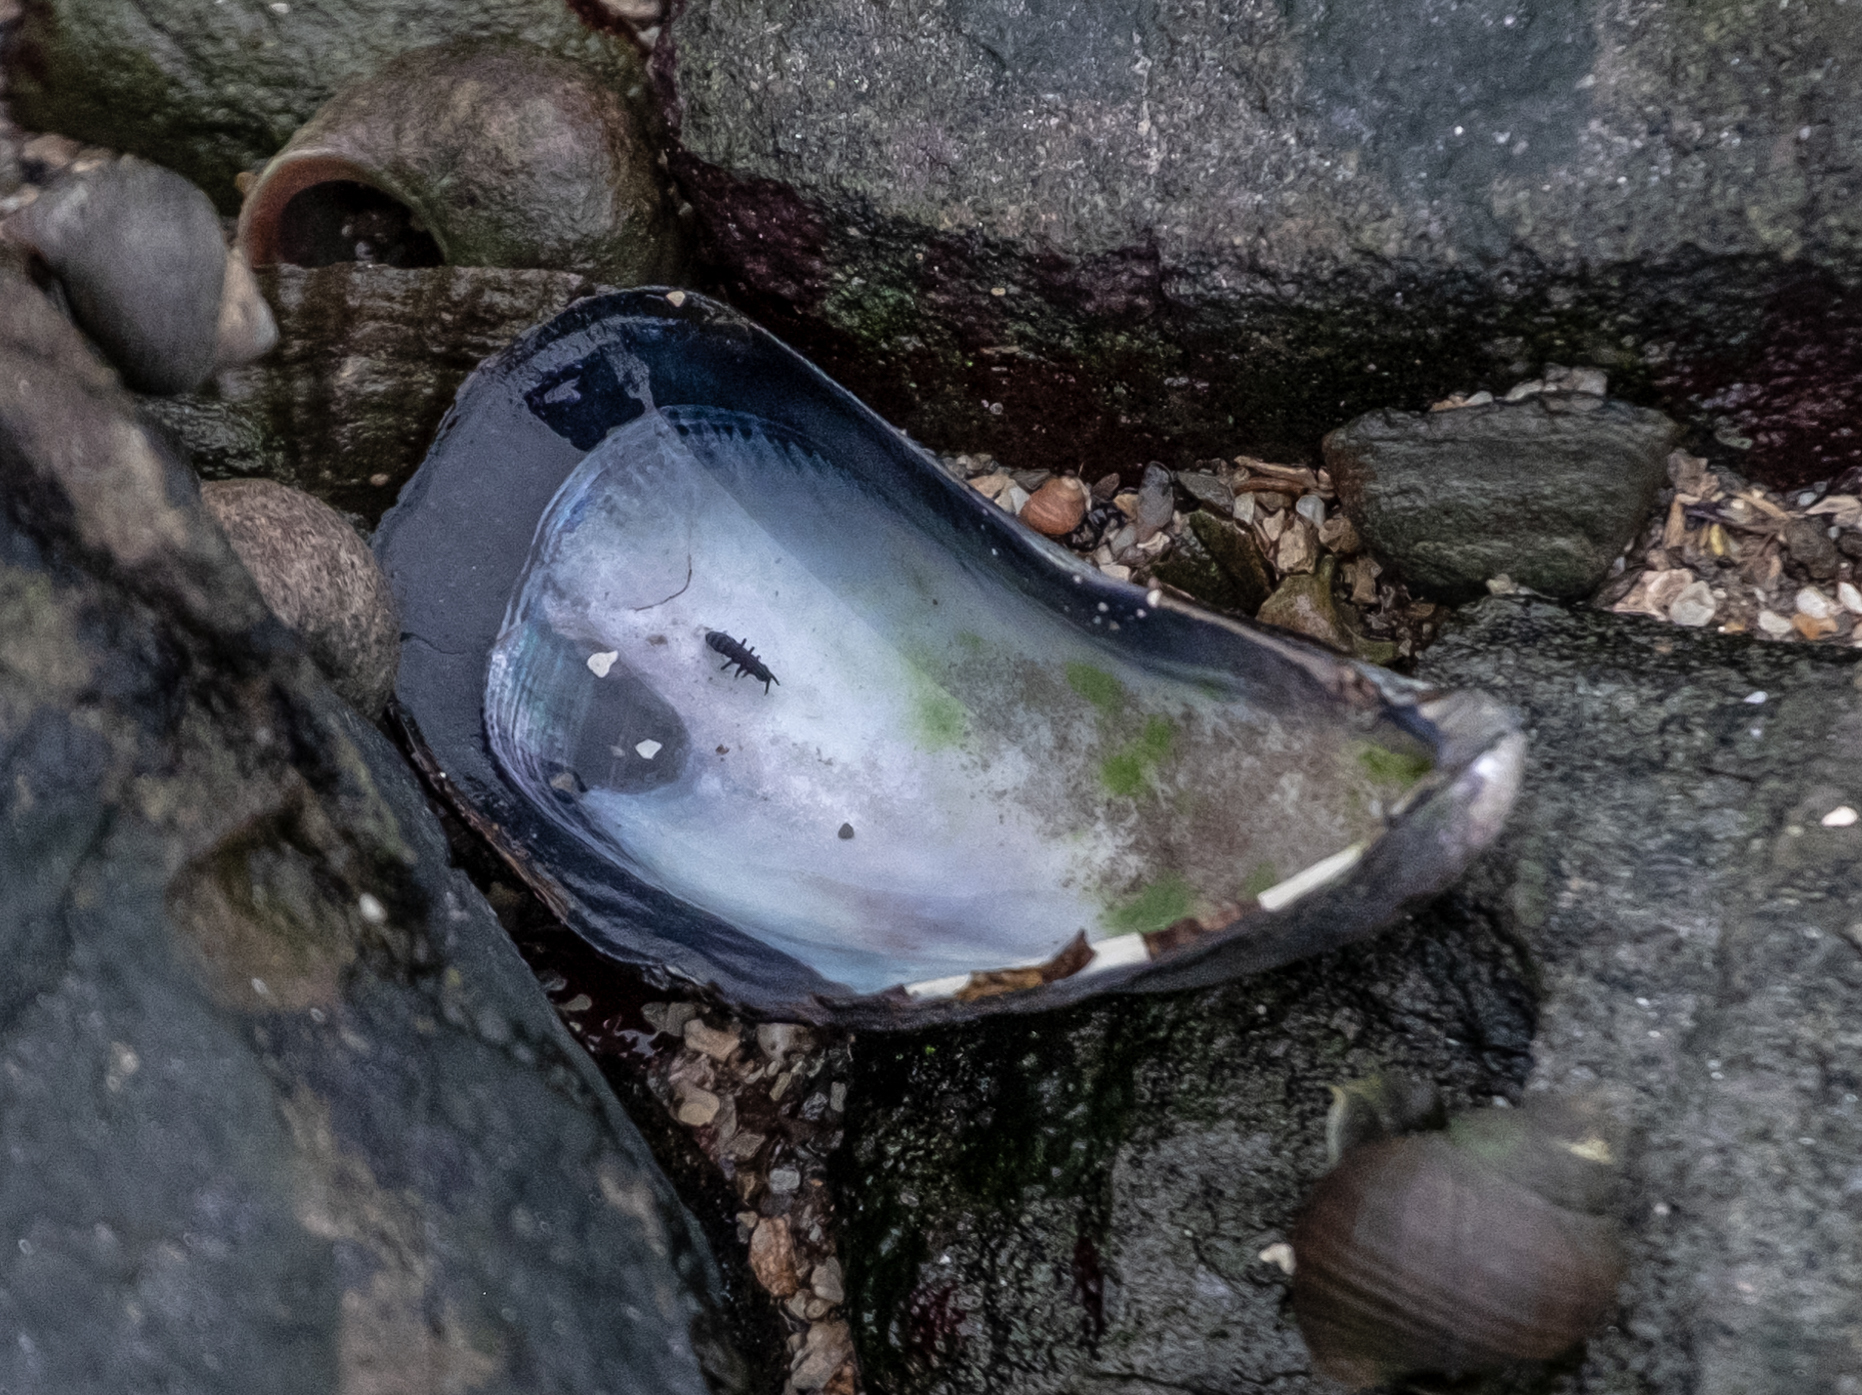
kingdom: Animalia
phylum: Mollusca
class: Bivalvia
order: Mytilida
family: Mytilidae
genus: Mytilus
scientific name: Mytilus edulis
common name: Blue mussel
